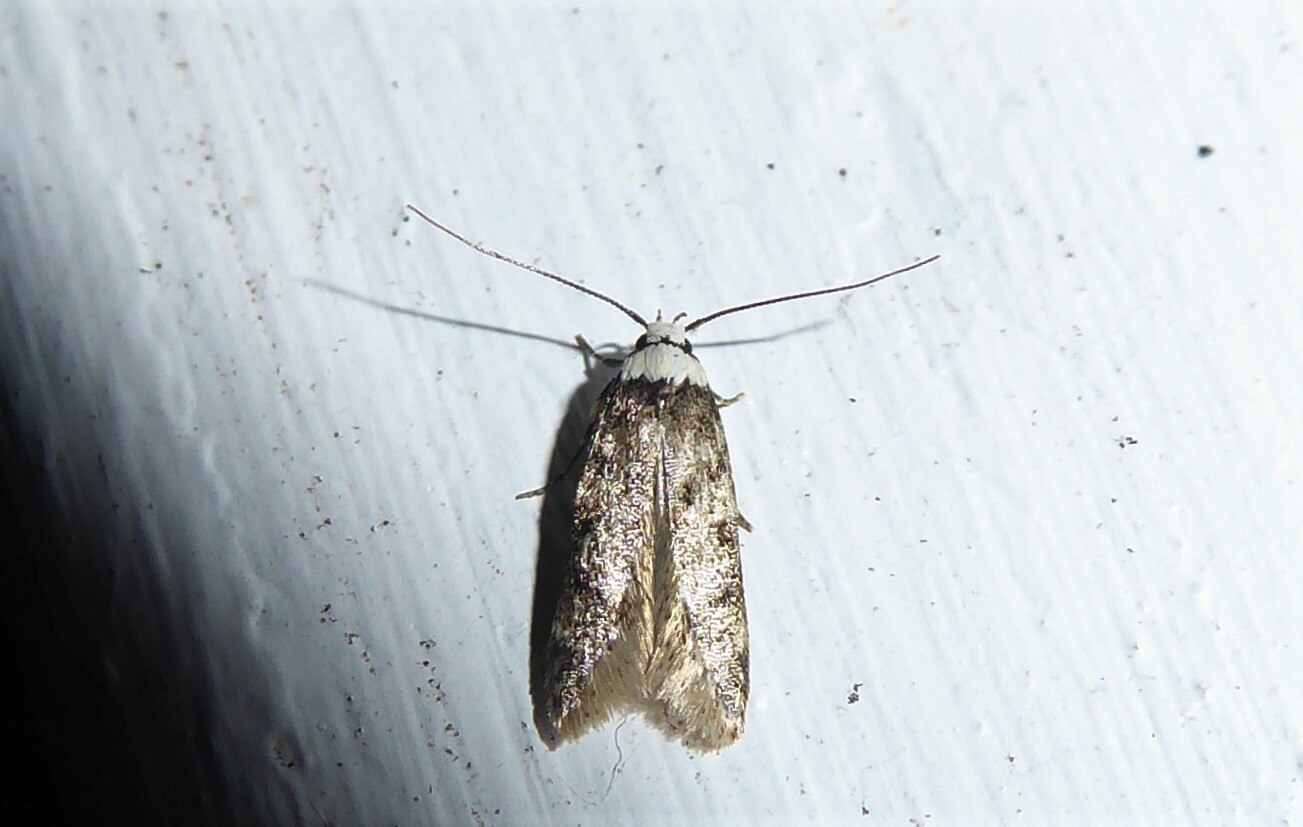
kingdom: Animalia
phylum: Arthropoda
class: Insecta
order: Lepidoptera
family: Oecophoridae
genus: Endrosis
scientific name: Endrosis sarcitrella
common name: White-shouldered house moth
